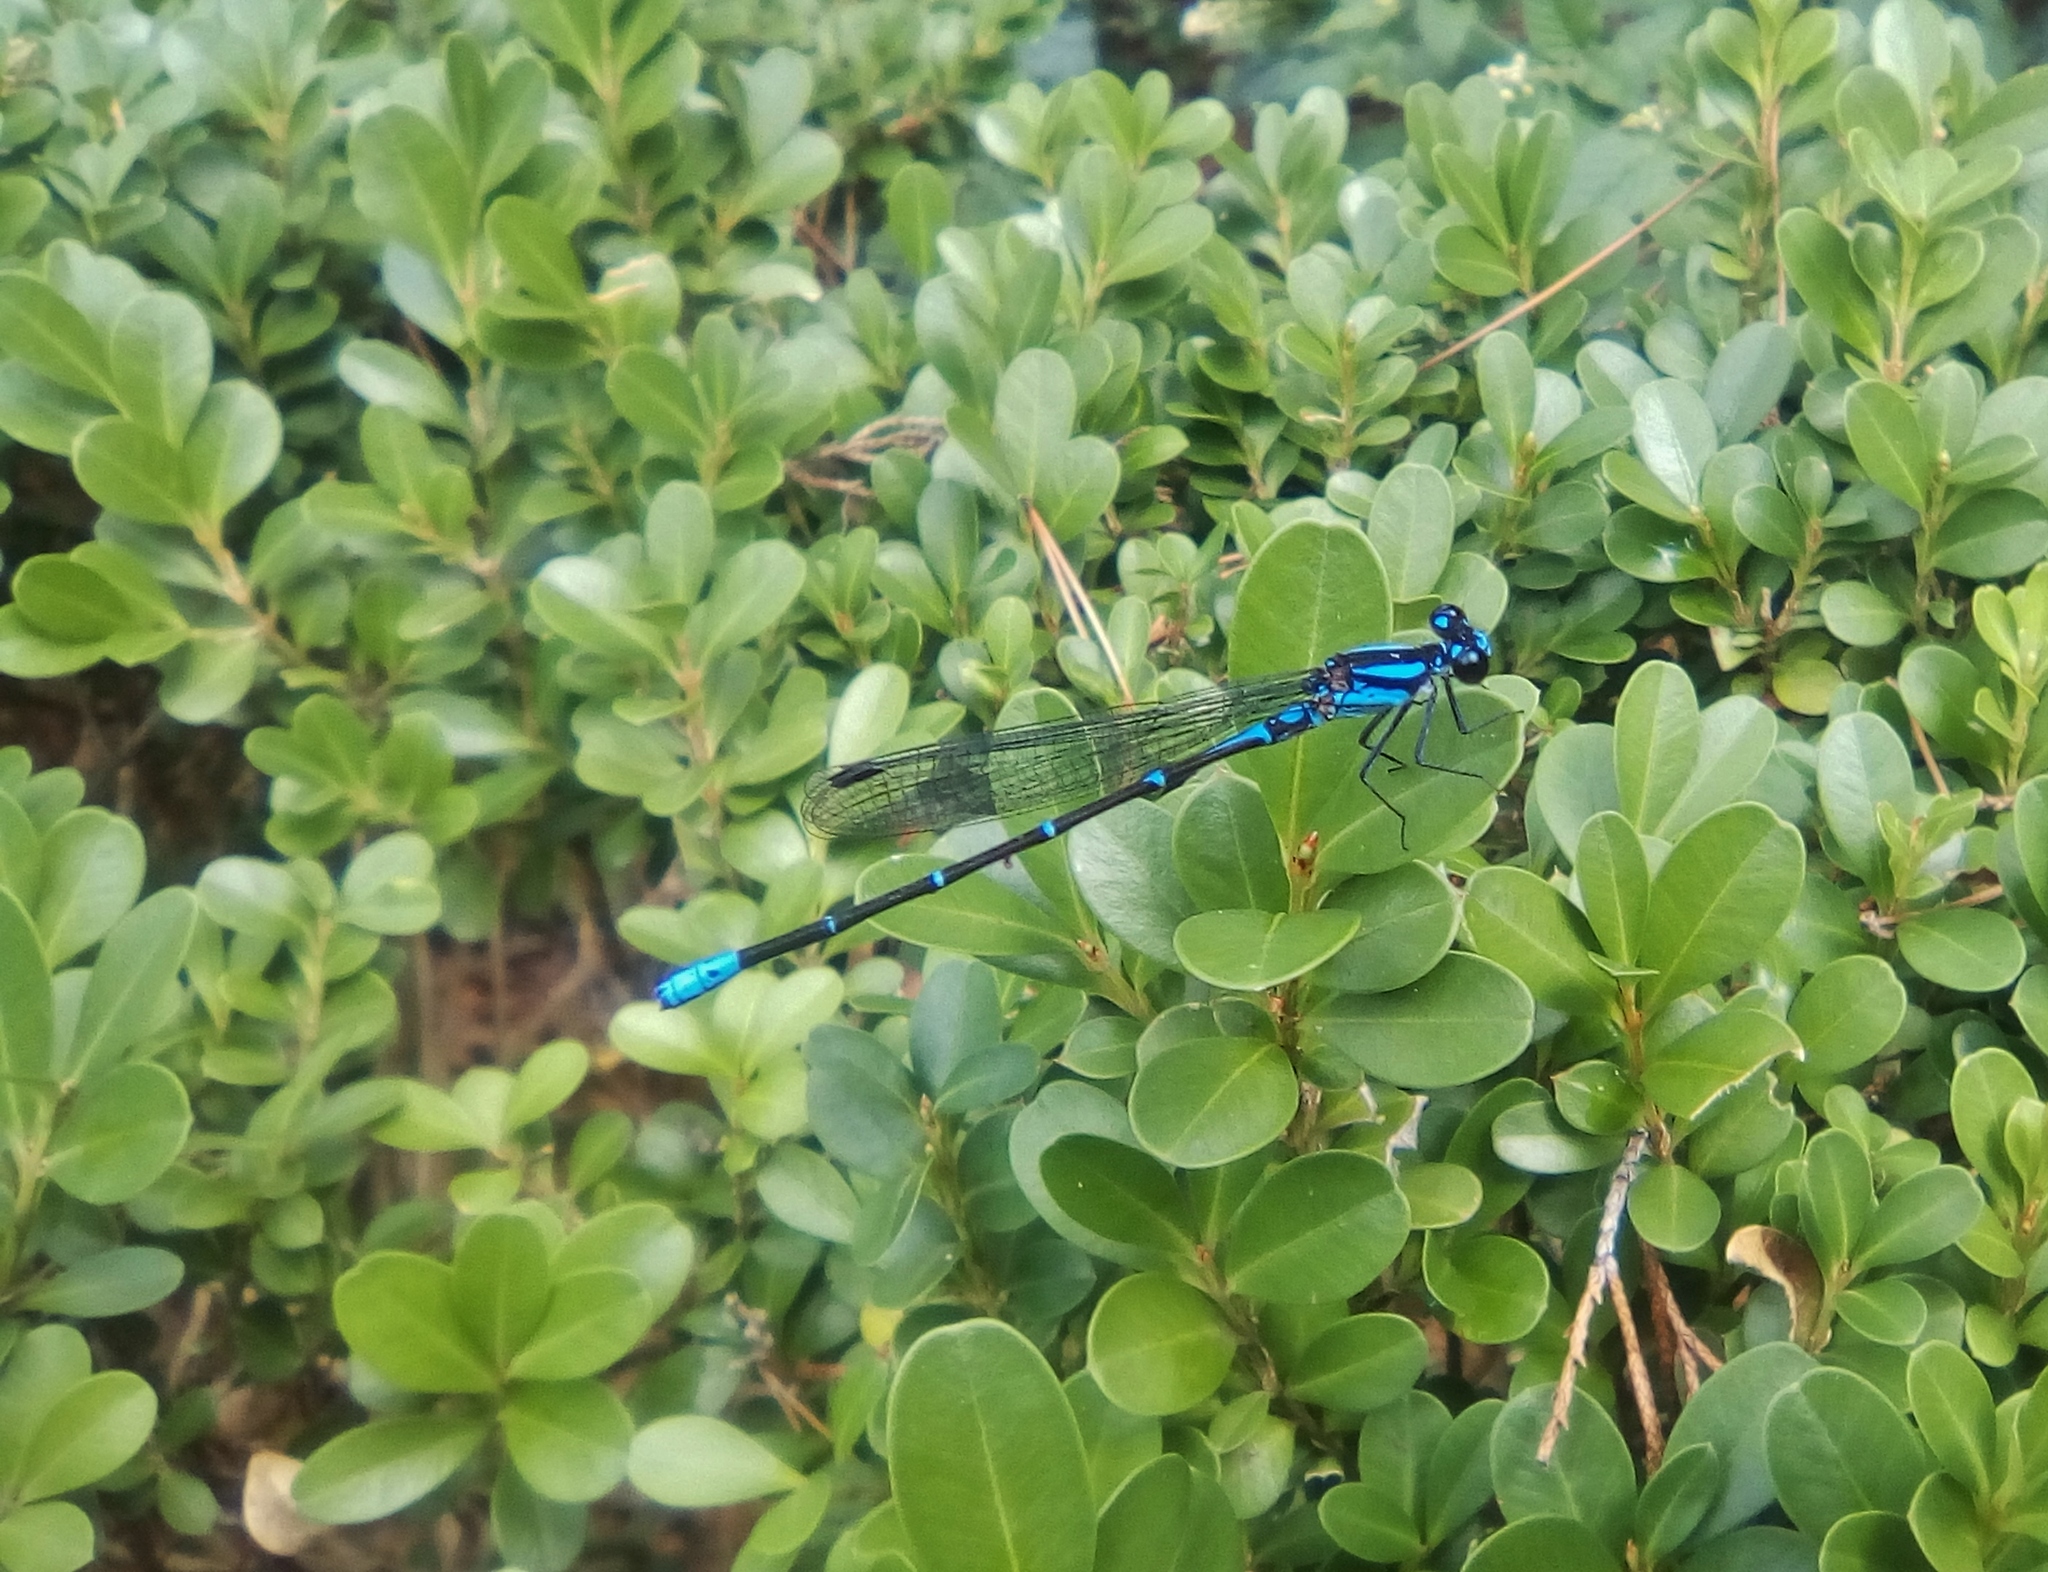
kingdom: Animalia
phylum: Arthropoda
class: Insecta
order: Odonata
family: Coenagrionidae
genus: Argia
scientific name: Argia oculata
